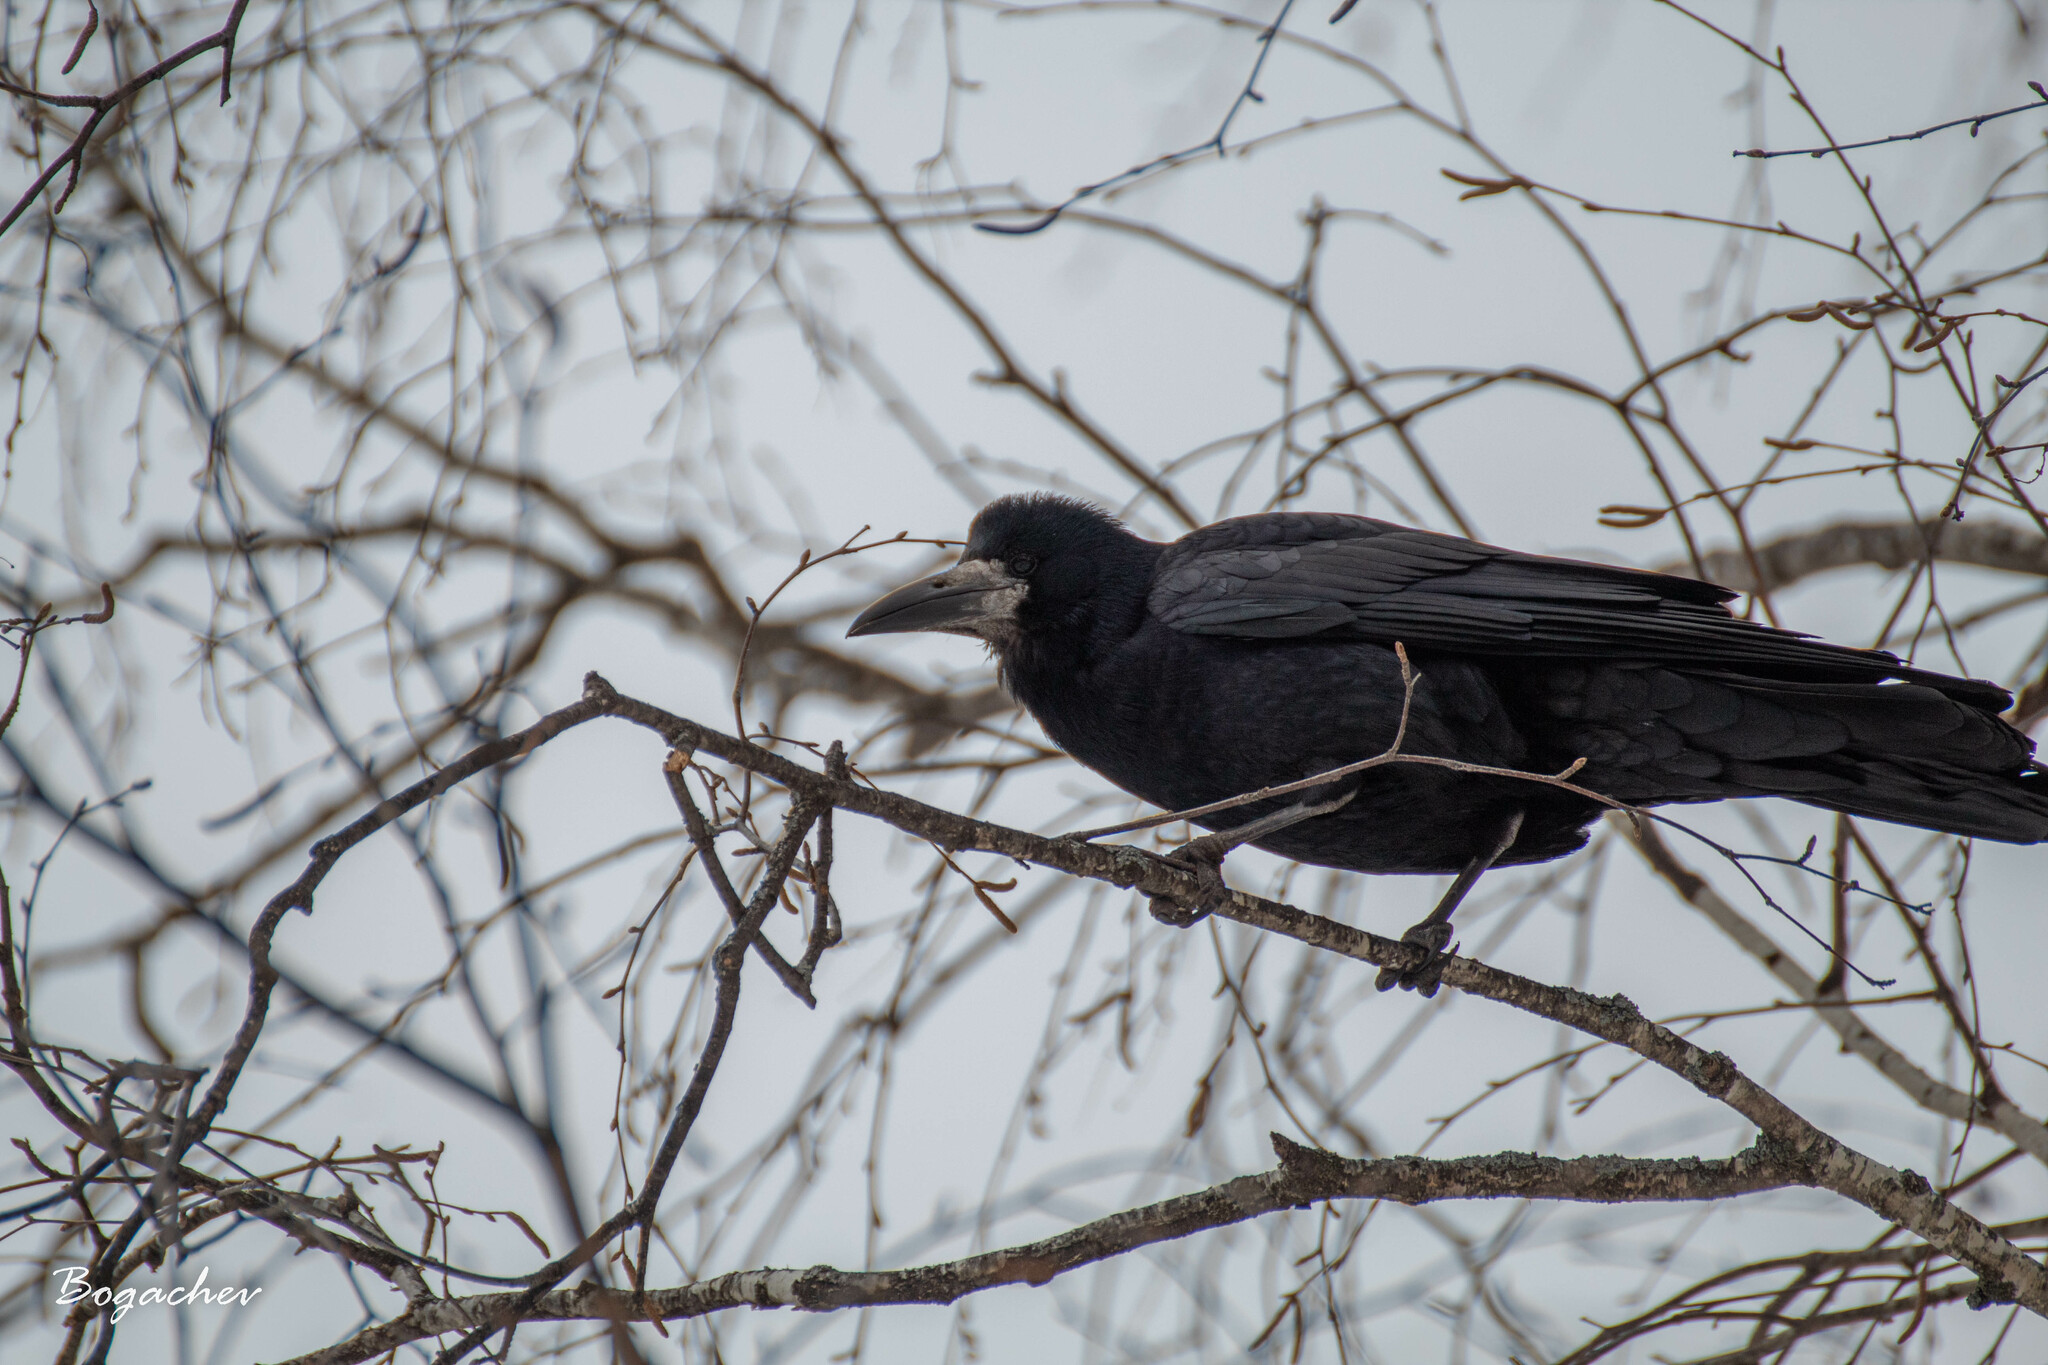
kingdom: Animalia
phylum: Chordata
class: Aves
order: Passeriformes
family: Corvidae
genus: Corvus
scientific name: Corvus frugilegus
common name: Rook
